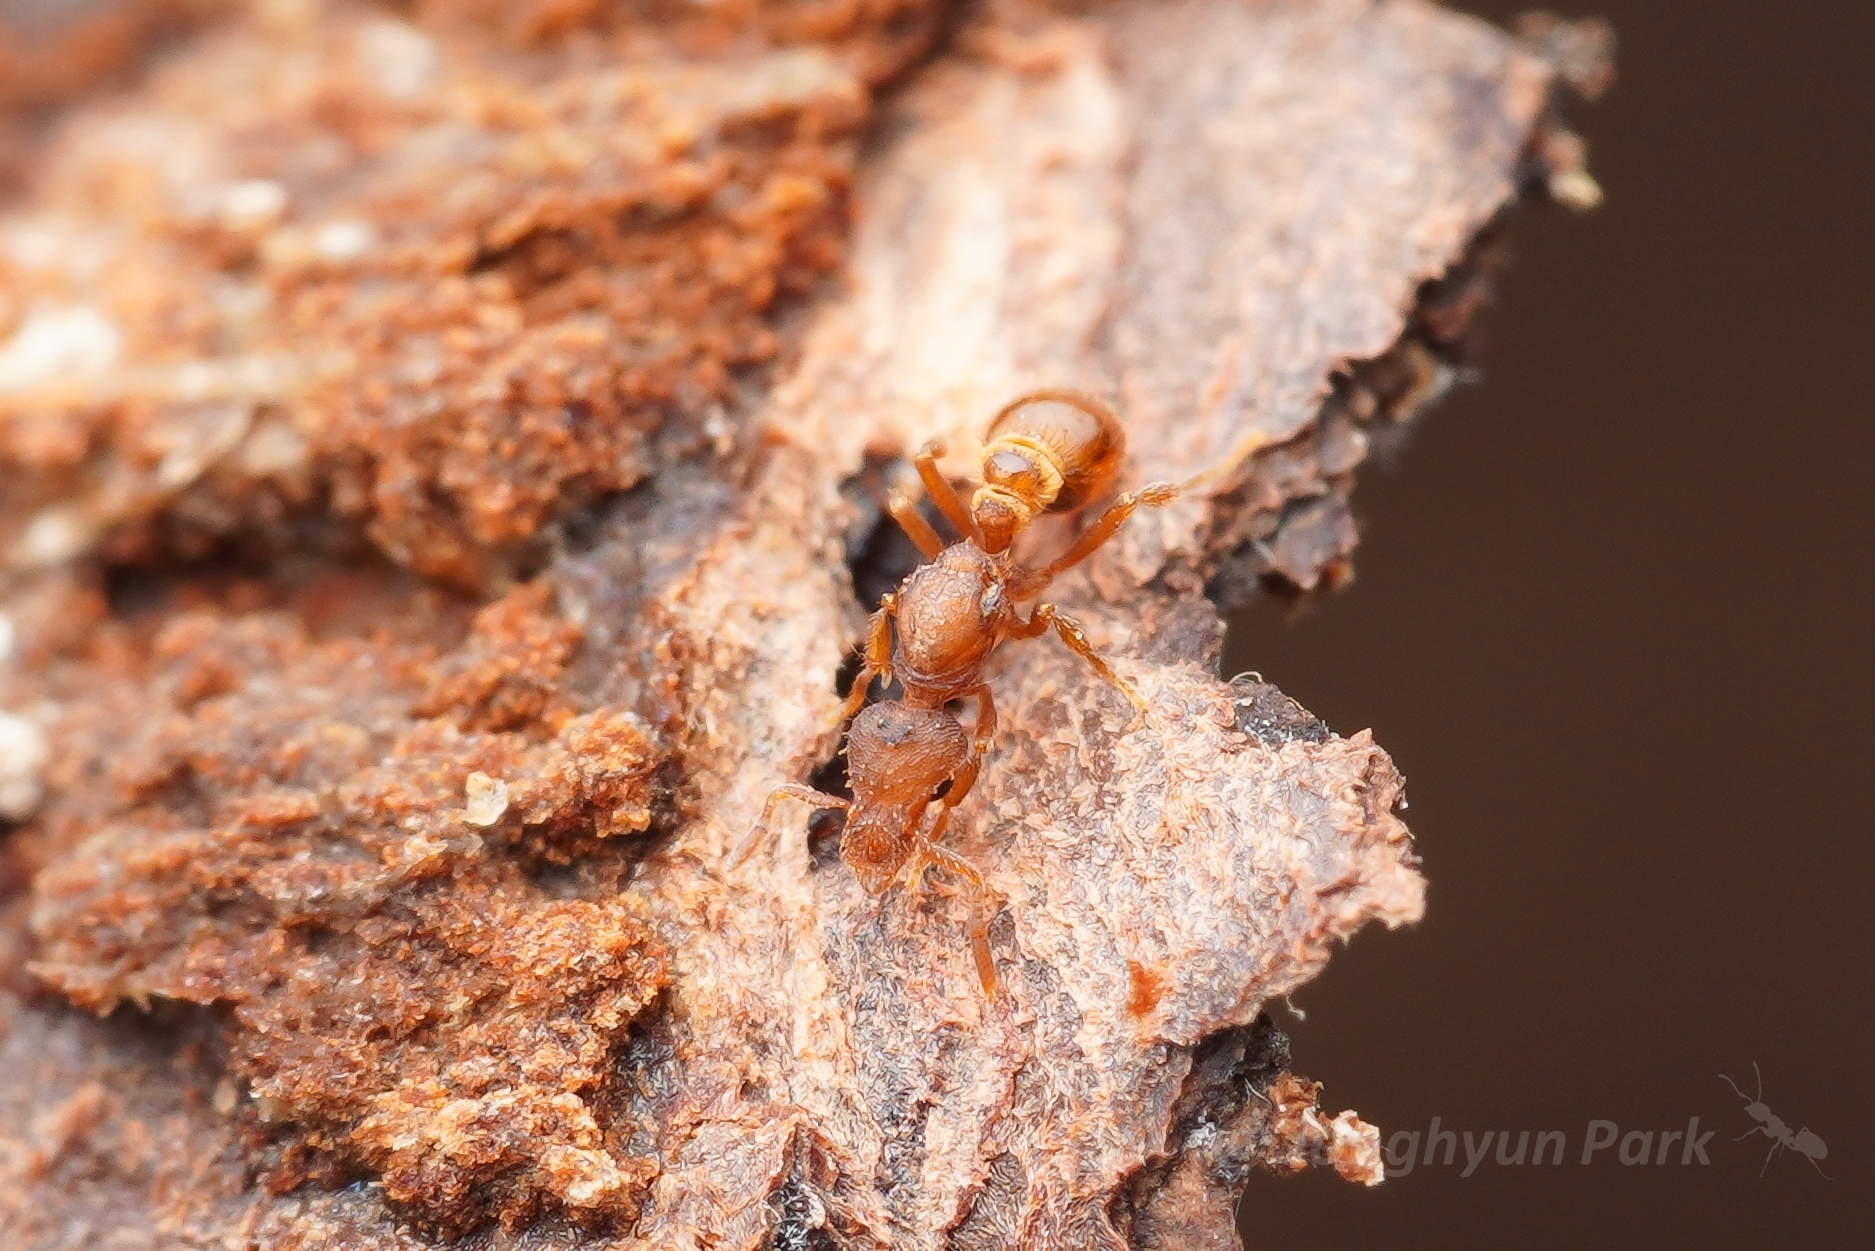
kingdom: Animalia
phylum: Arthropoda
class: Insecta
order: Hymenoptera
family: Formicidae
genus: Strumigenys
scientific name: Strumigenys
